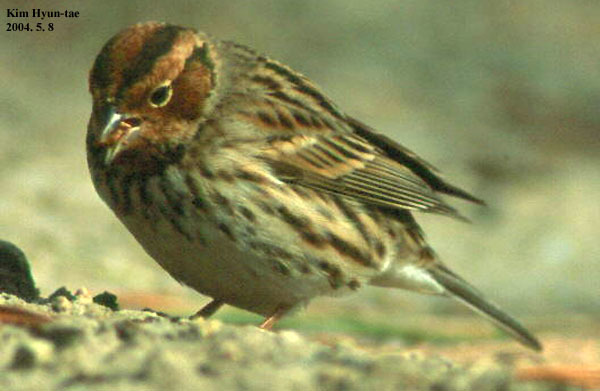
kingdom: Animalia
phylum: Chordata
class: Aves
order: Passeriformes
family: Emberizidae
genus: Emberiza
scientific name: Emberiza pusilla
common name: Little bunting
